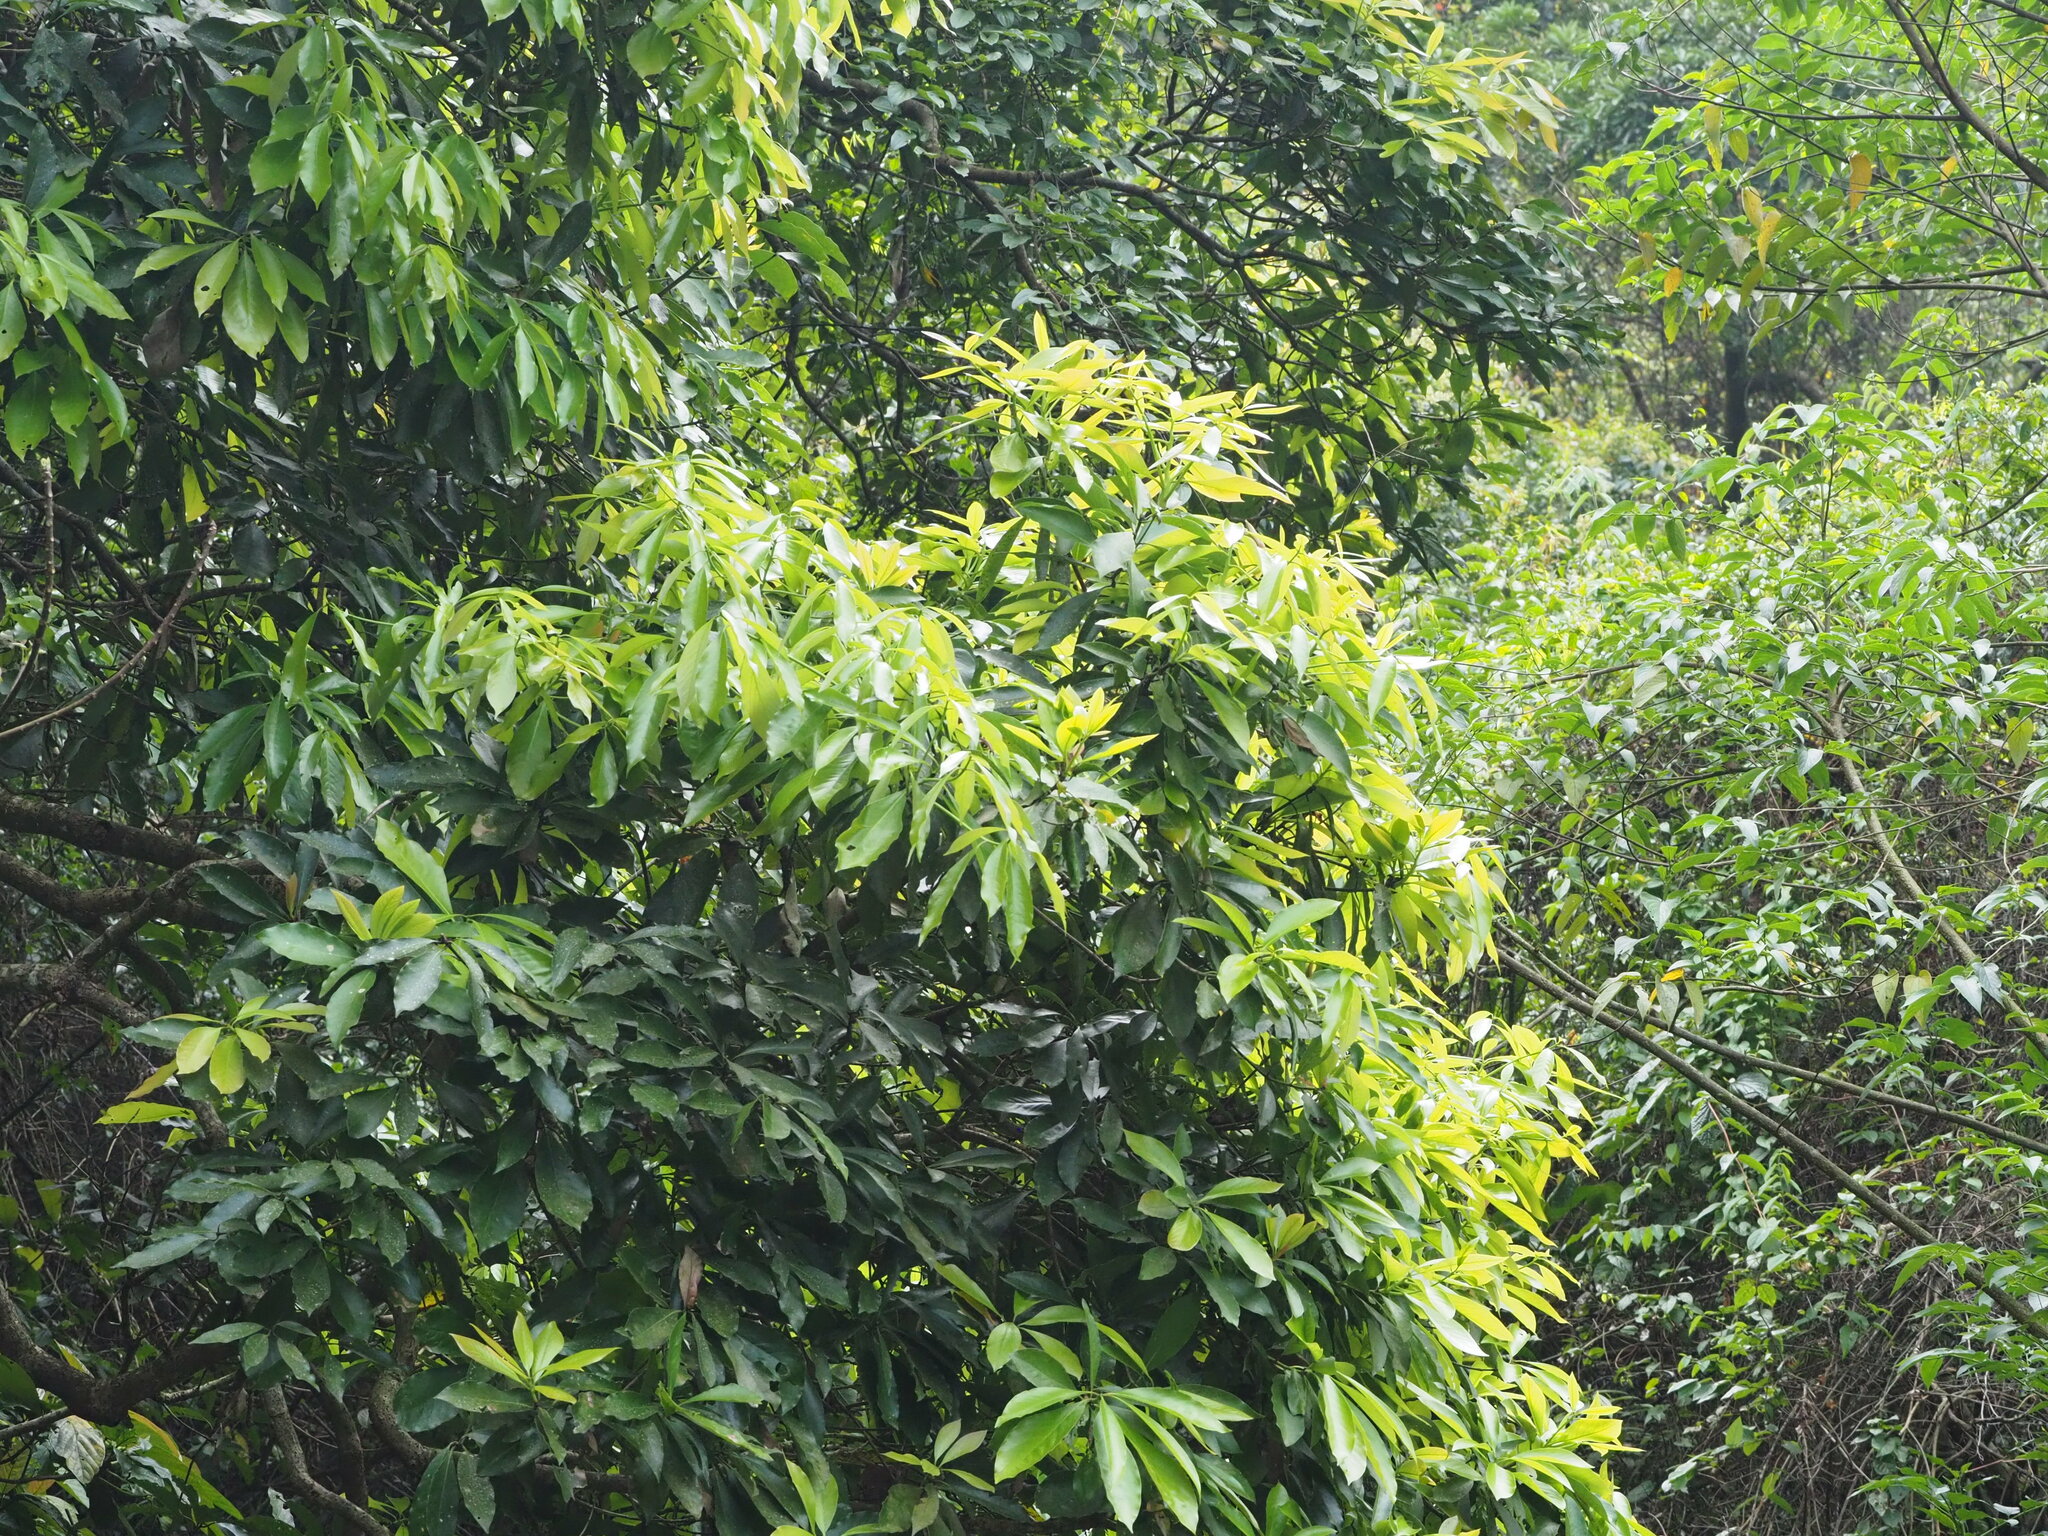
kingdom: Plantae
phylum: Tracheophyta
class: Magnoliopsida
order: Laurales
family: Lauraceae
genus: Machilus
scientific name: Machilus japonica
